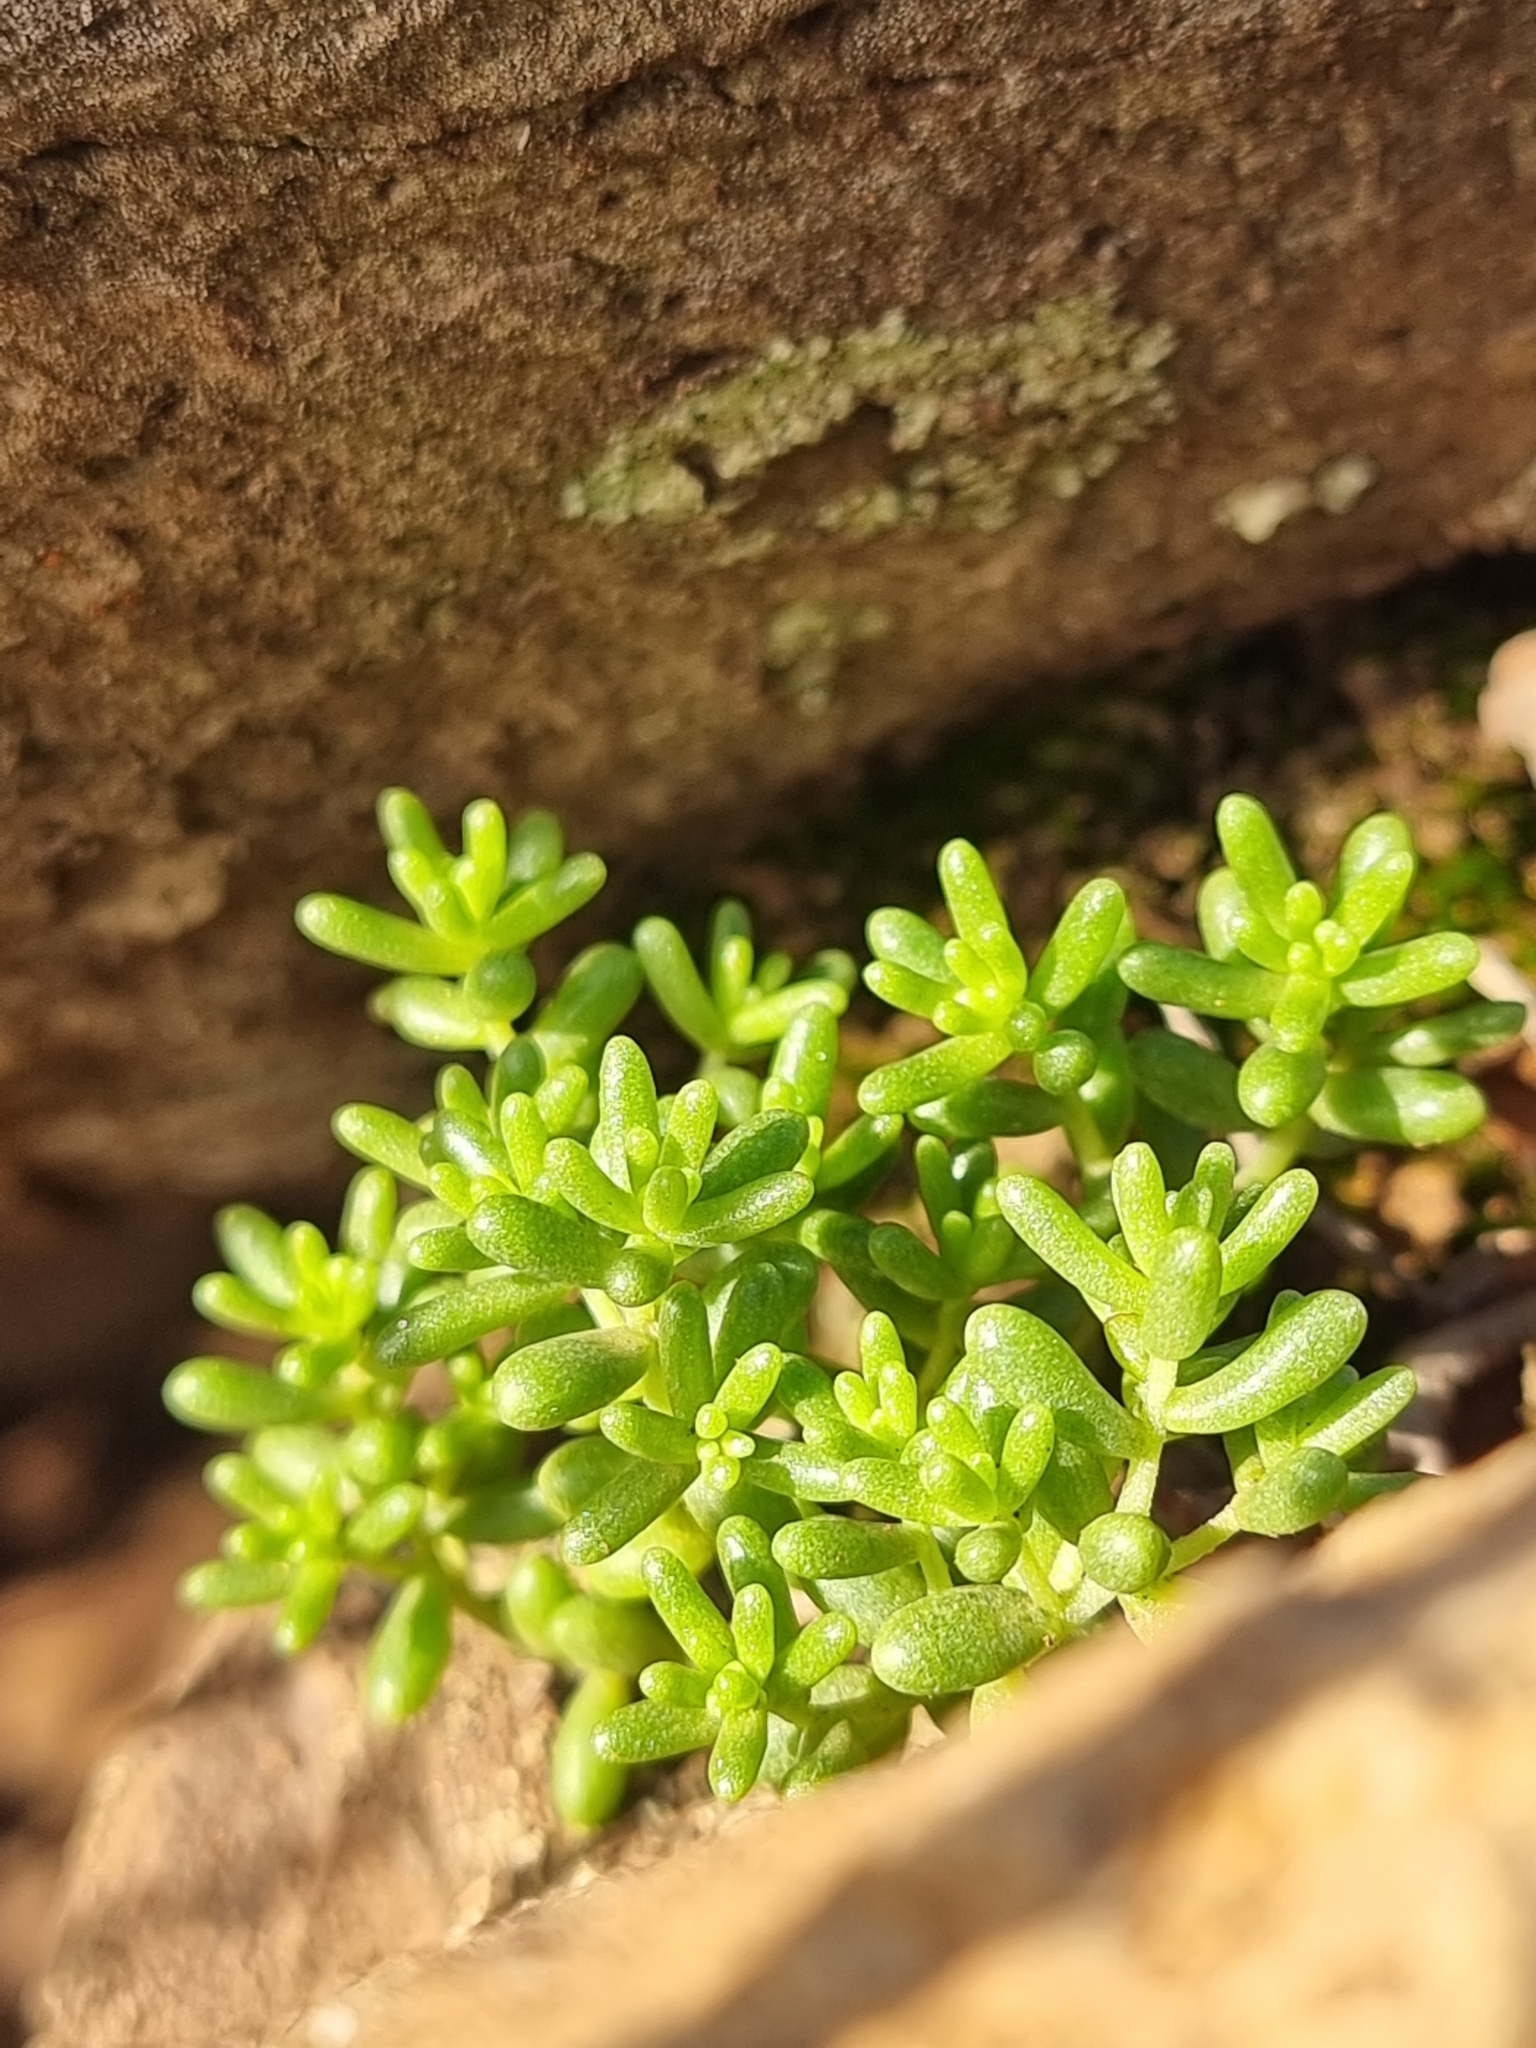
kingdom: Plantae
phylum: Tracheophyta
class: Magnoliopsida
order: Saxifragales
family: Crassulaceae
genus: Sedum
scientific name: Sedum brissemoretii
